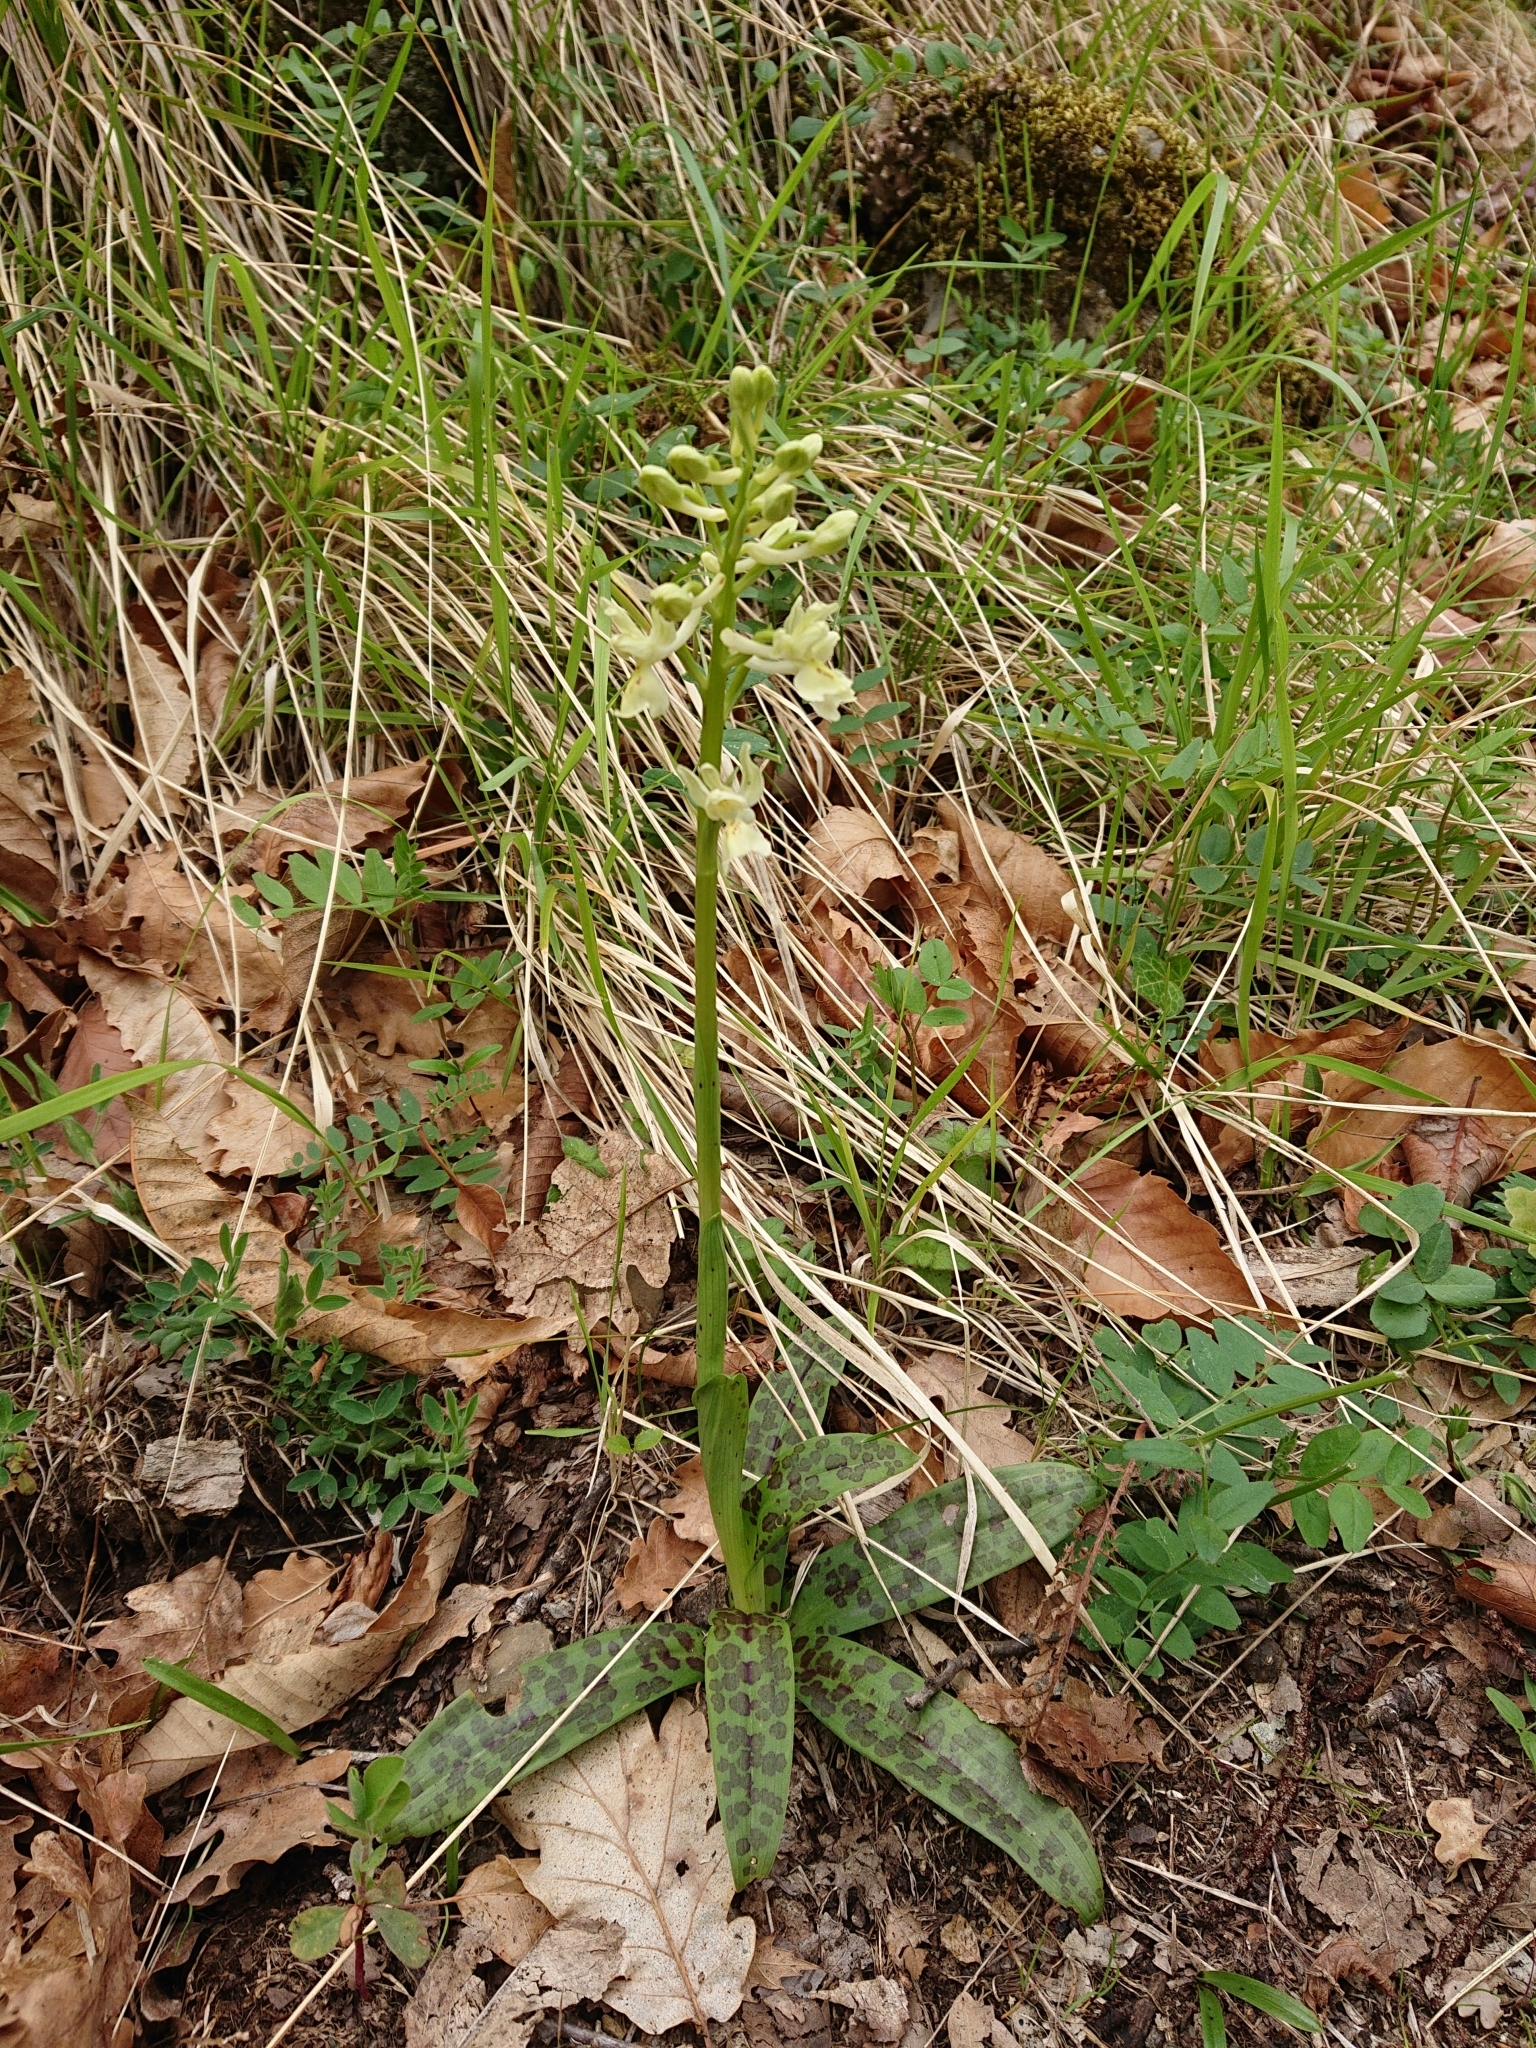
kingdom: Plantae
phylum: Tracheophyta
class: Liliopsida
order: Asparagales
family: Orchidaceae
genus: Orchis
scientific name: Orchis provincialis
